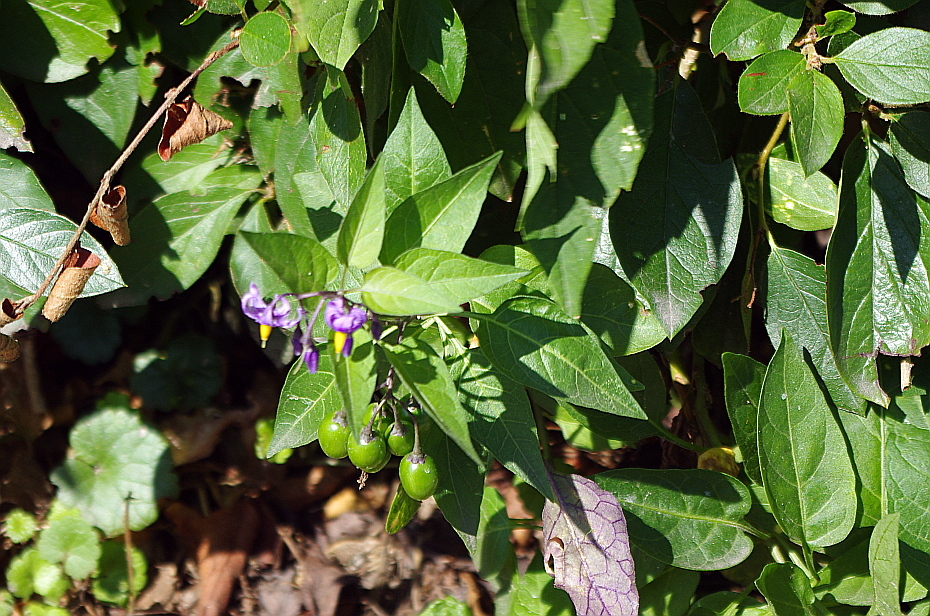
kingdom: Plantae
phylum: Tracheophyta
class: Magnoliopsida
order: Solanales
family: Solanaceae
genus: Solanum
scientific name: Solanum dulcamara
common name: Climbing nightshade
